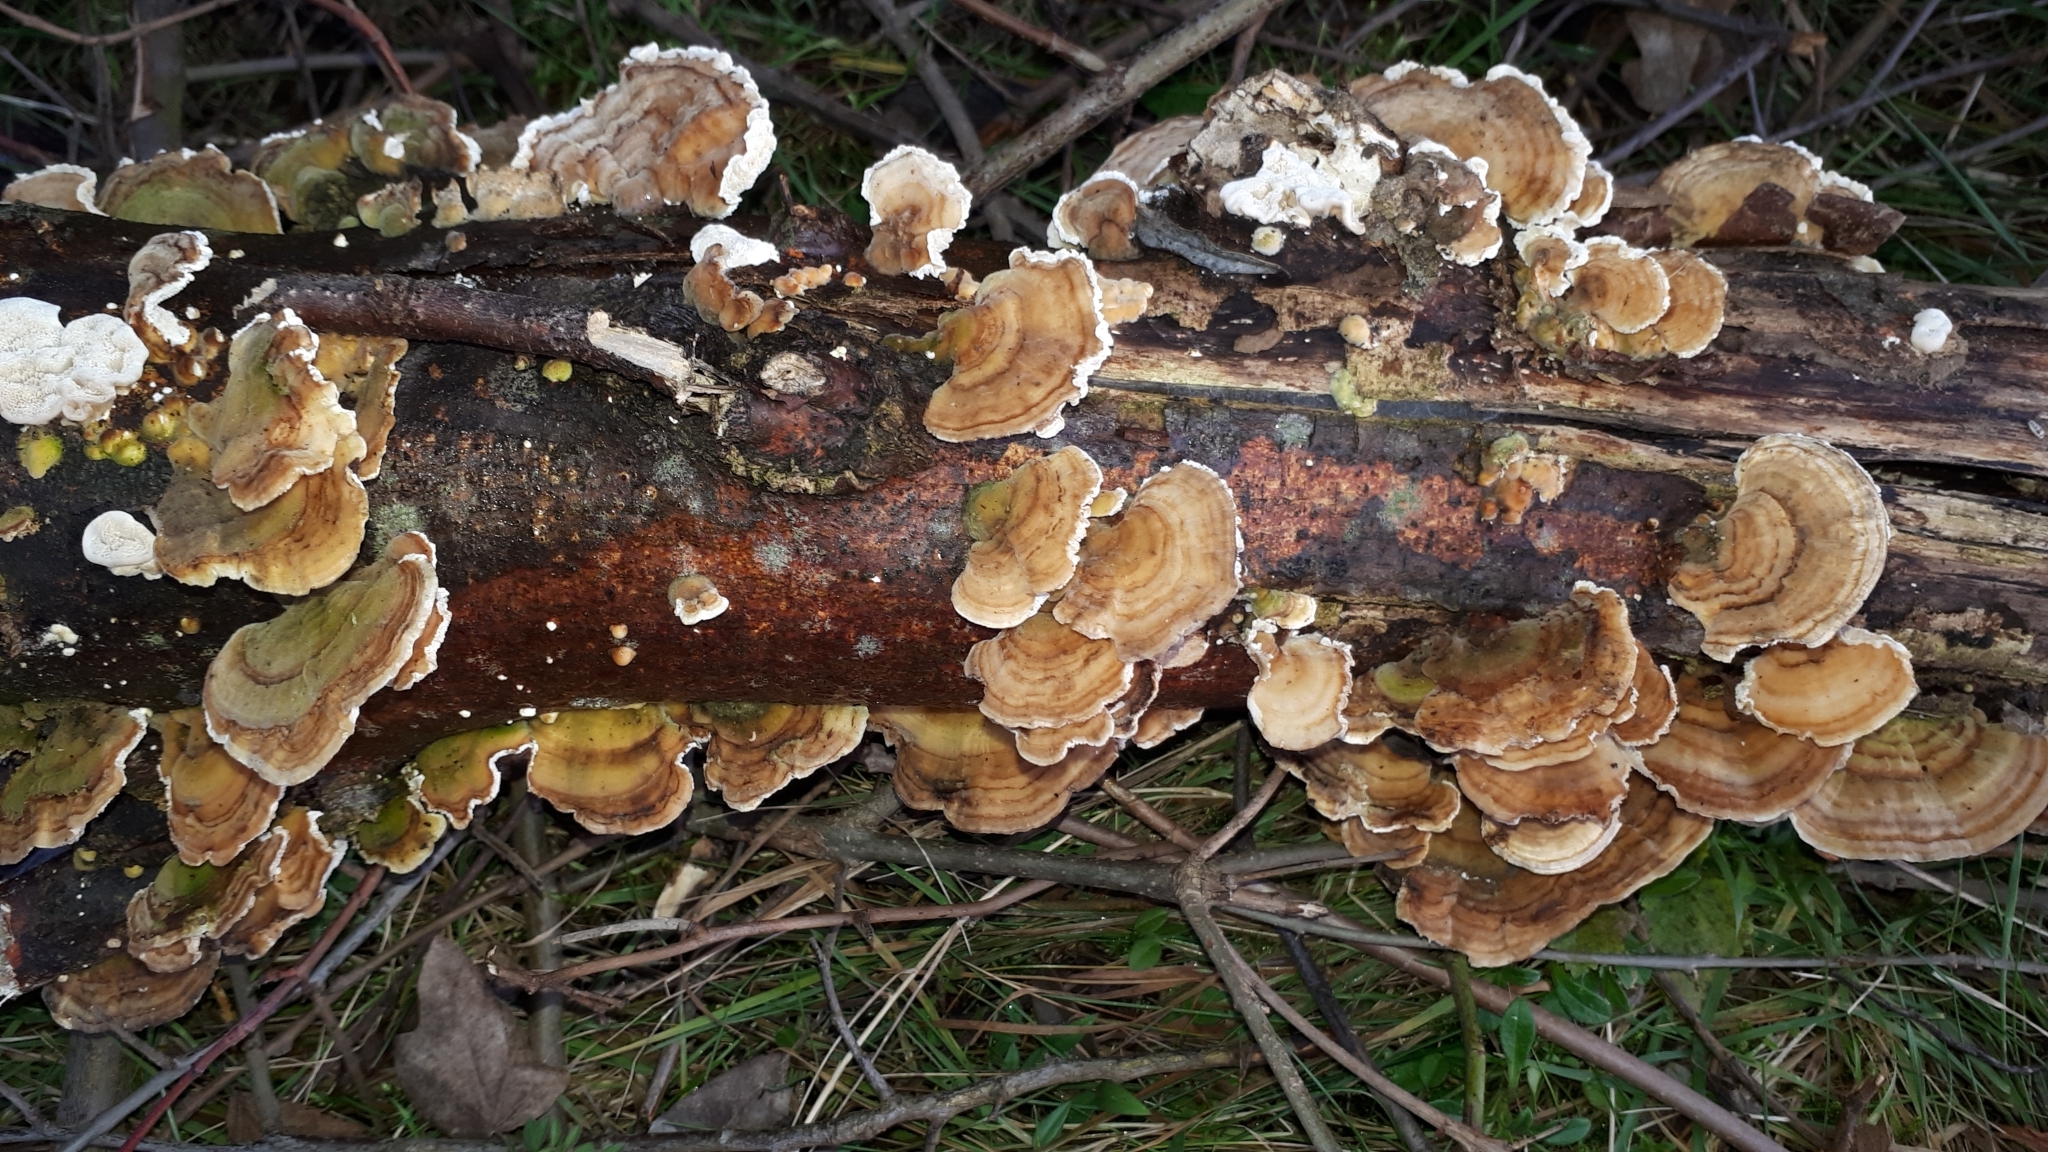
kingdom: Fungi
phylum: Basidiomycota
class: Agaricomycetes
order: Polyporales
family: Polyporaceae
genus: Trametes
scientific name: Trametes versicolor
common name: Turkeytail
